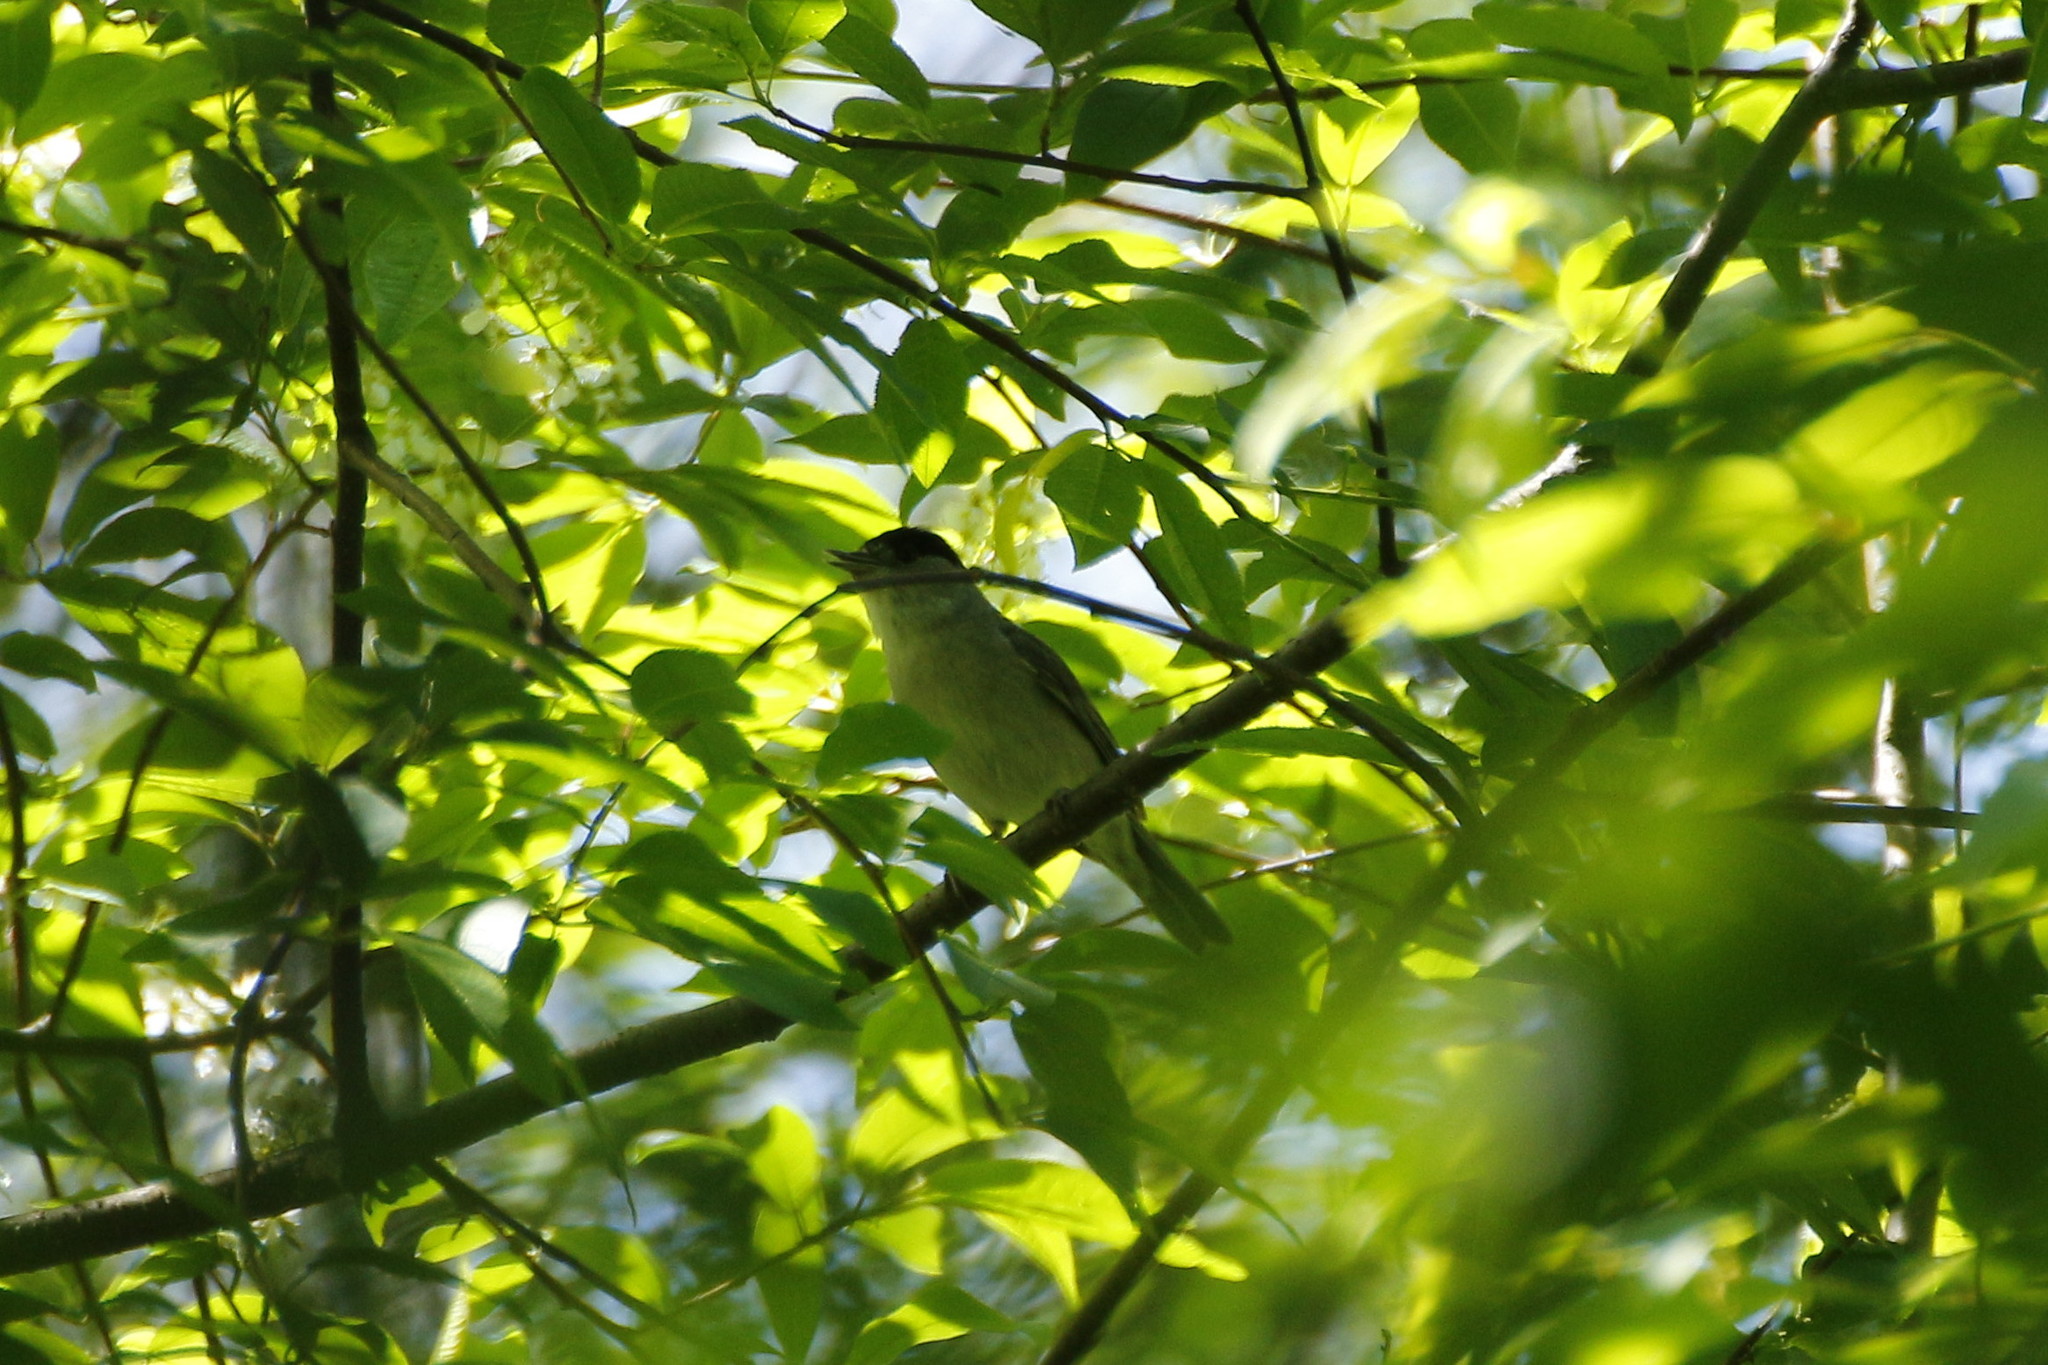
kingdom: Animalia
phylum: Chordata
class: Aves
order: Passeriformes
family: Sylviidae
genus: Sylvia
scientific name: Sylvia atricapilla
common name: Eurasian blackcap
